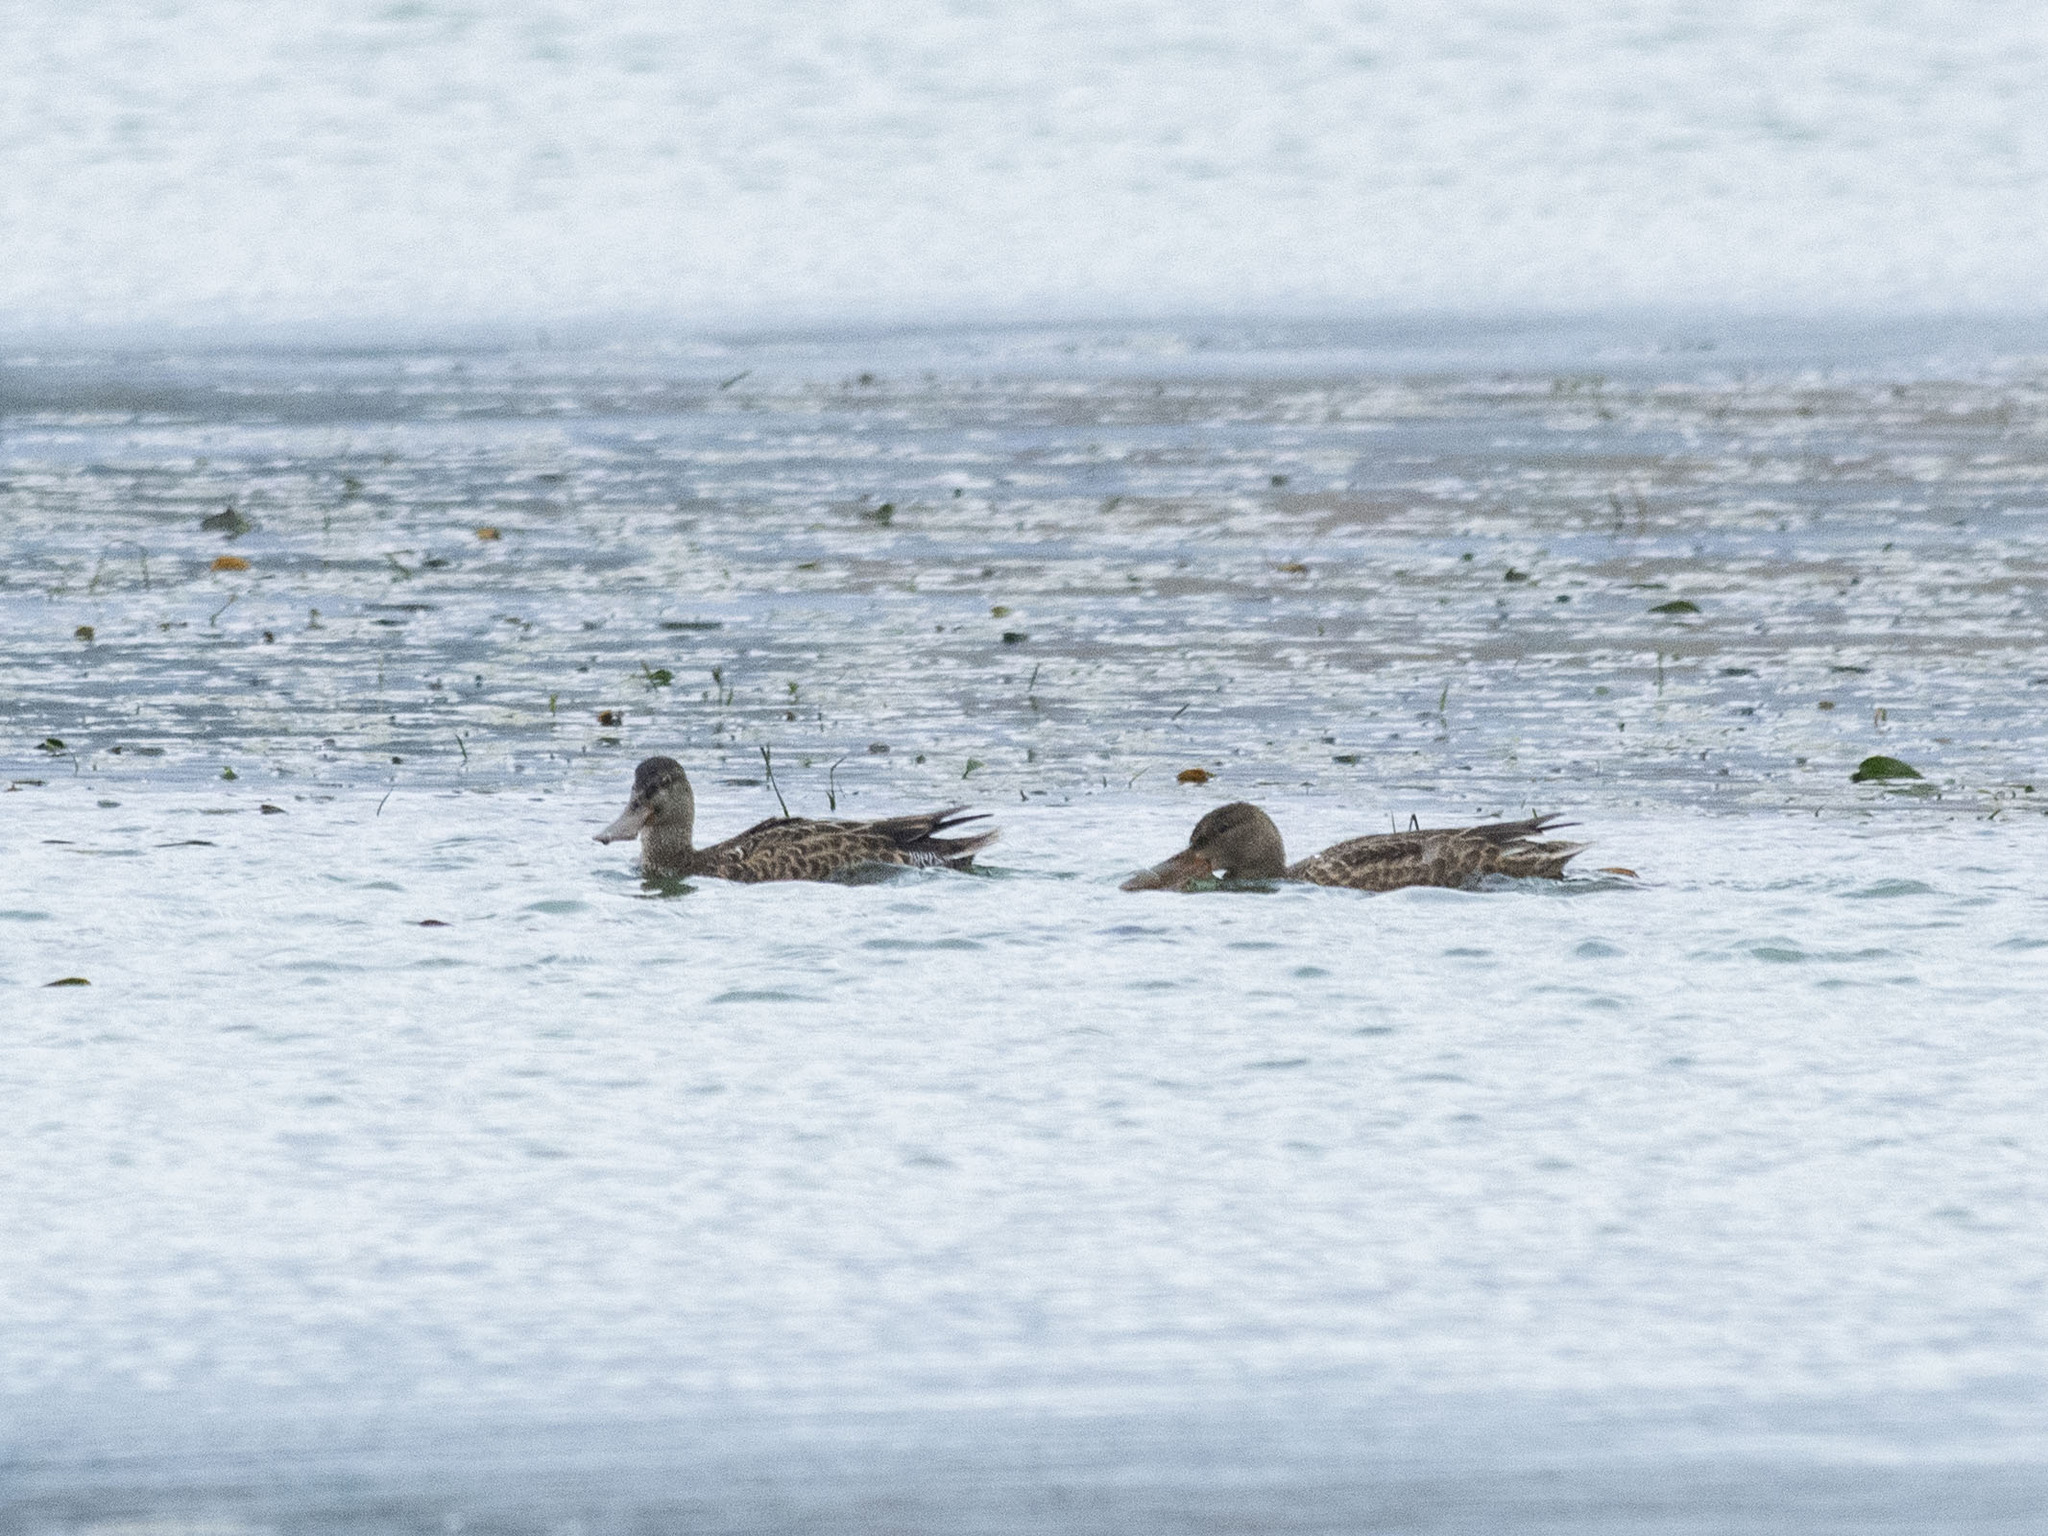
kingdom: Animalia
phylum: Chordata
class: Aves
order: Anseriformes
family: Anatidae
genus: Spatula
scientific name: Spatula clypeata
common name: Northern shoveler
